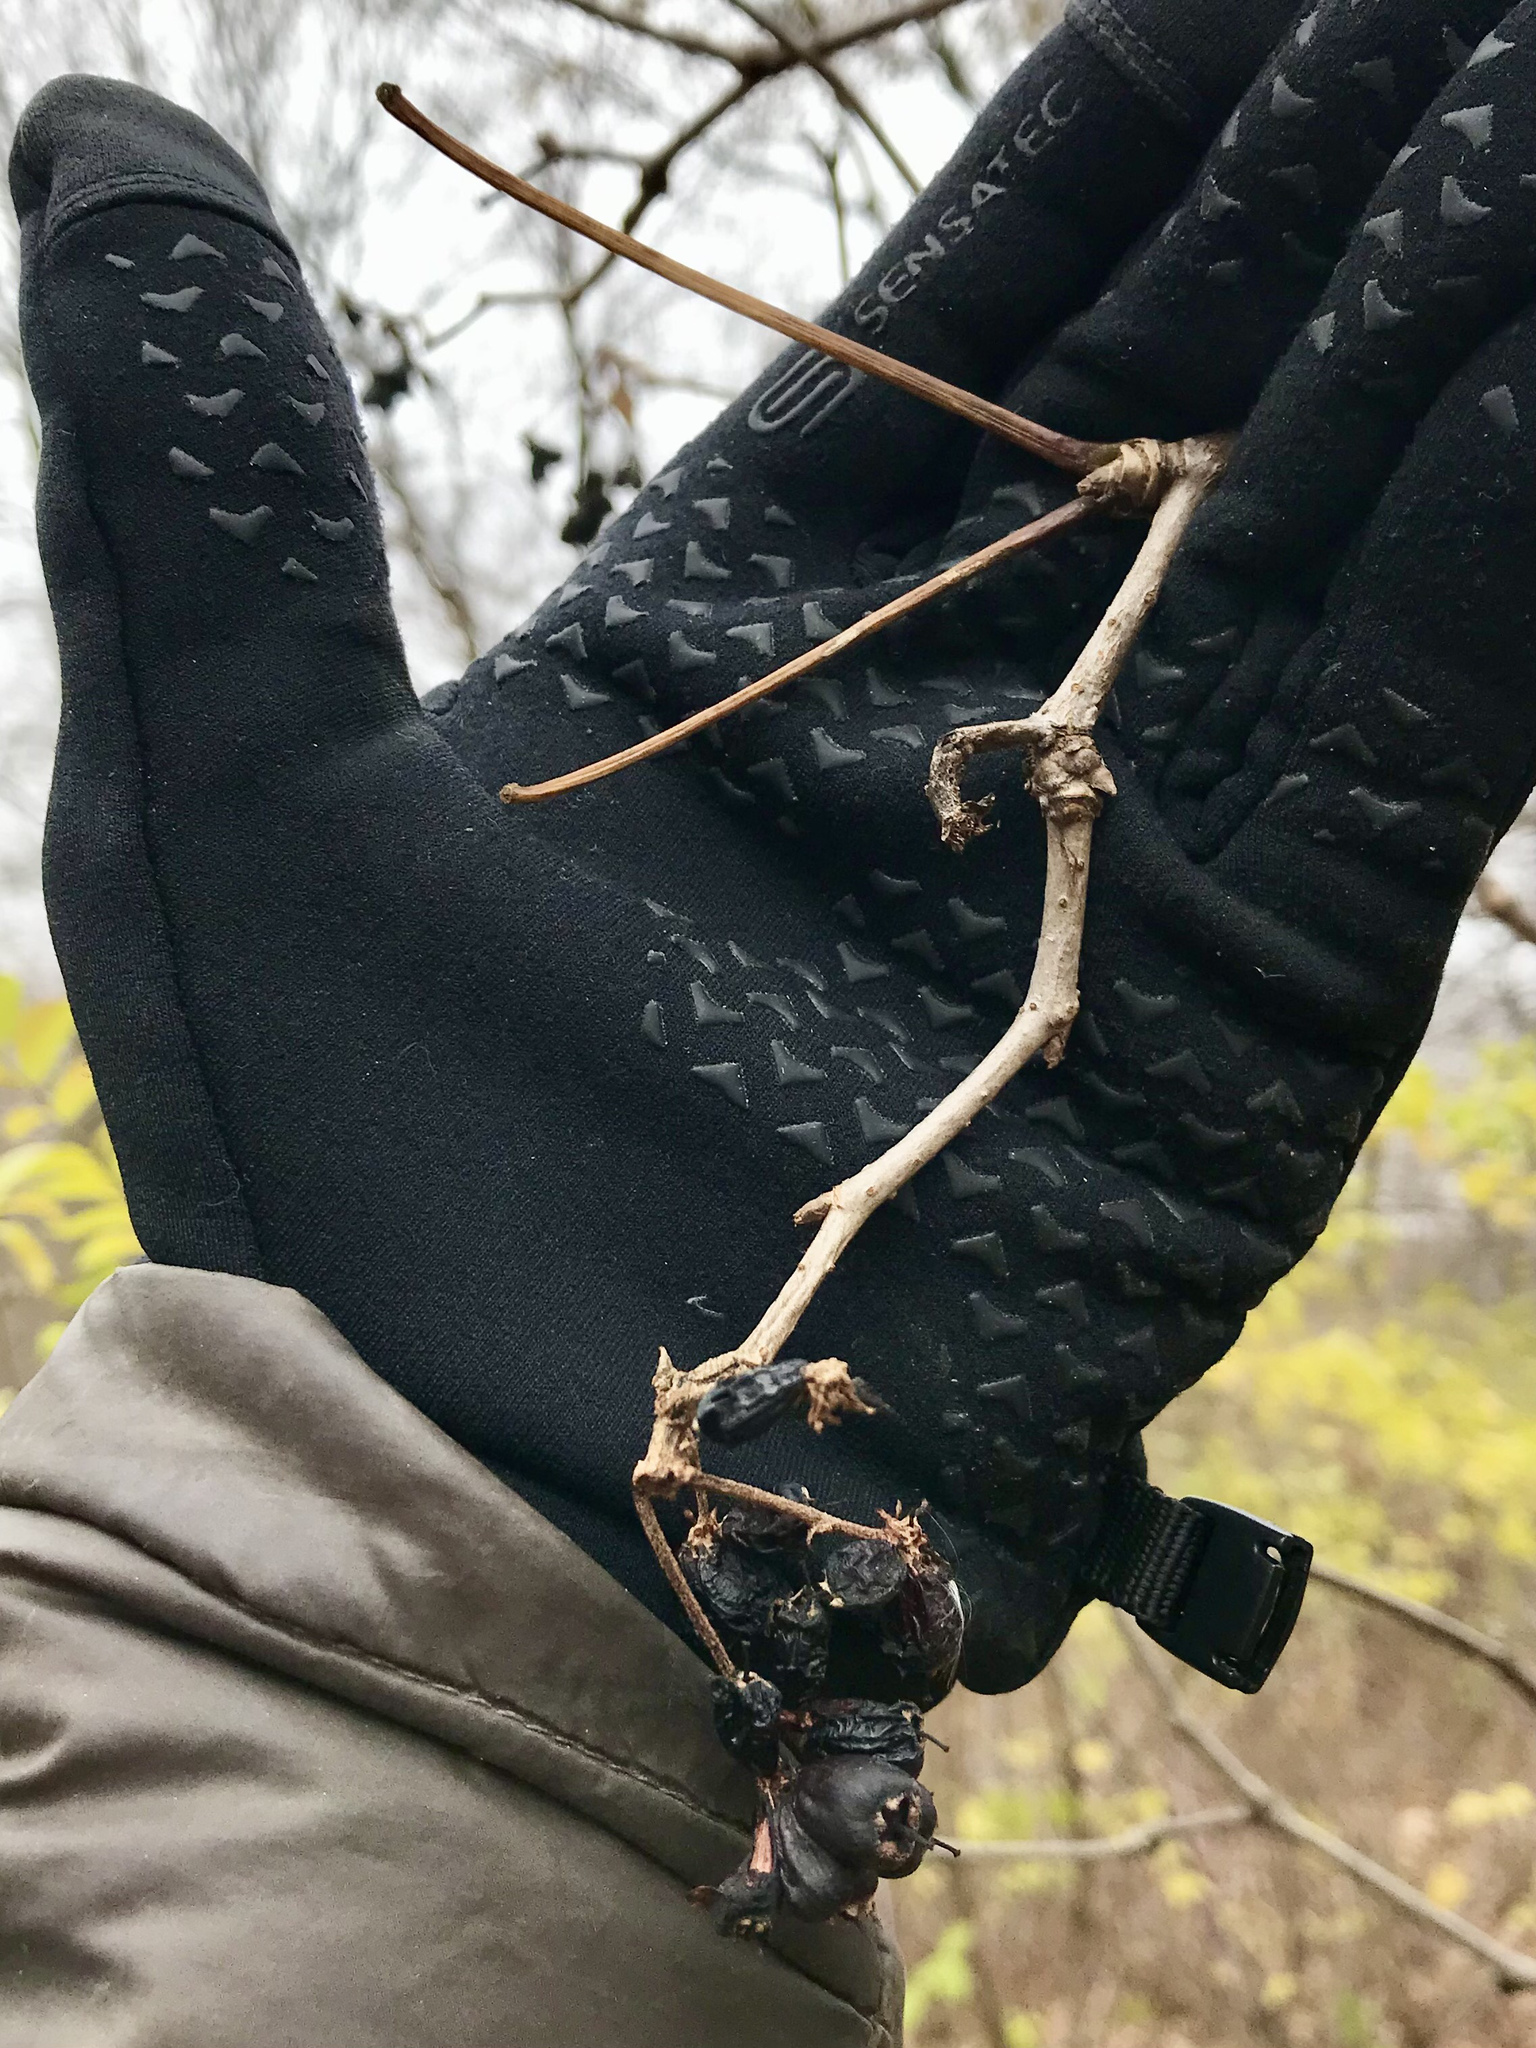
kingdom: Plantae
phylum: Tracheophyta
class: Magnoliopsida
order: Apiales
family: Araliaceae
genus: Eleutherococcus
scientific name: Eleutherococcus sessiliflorus
